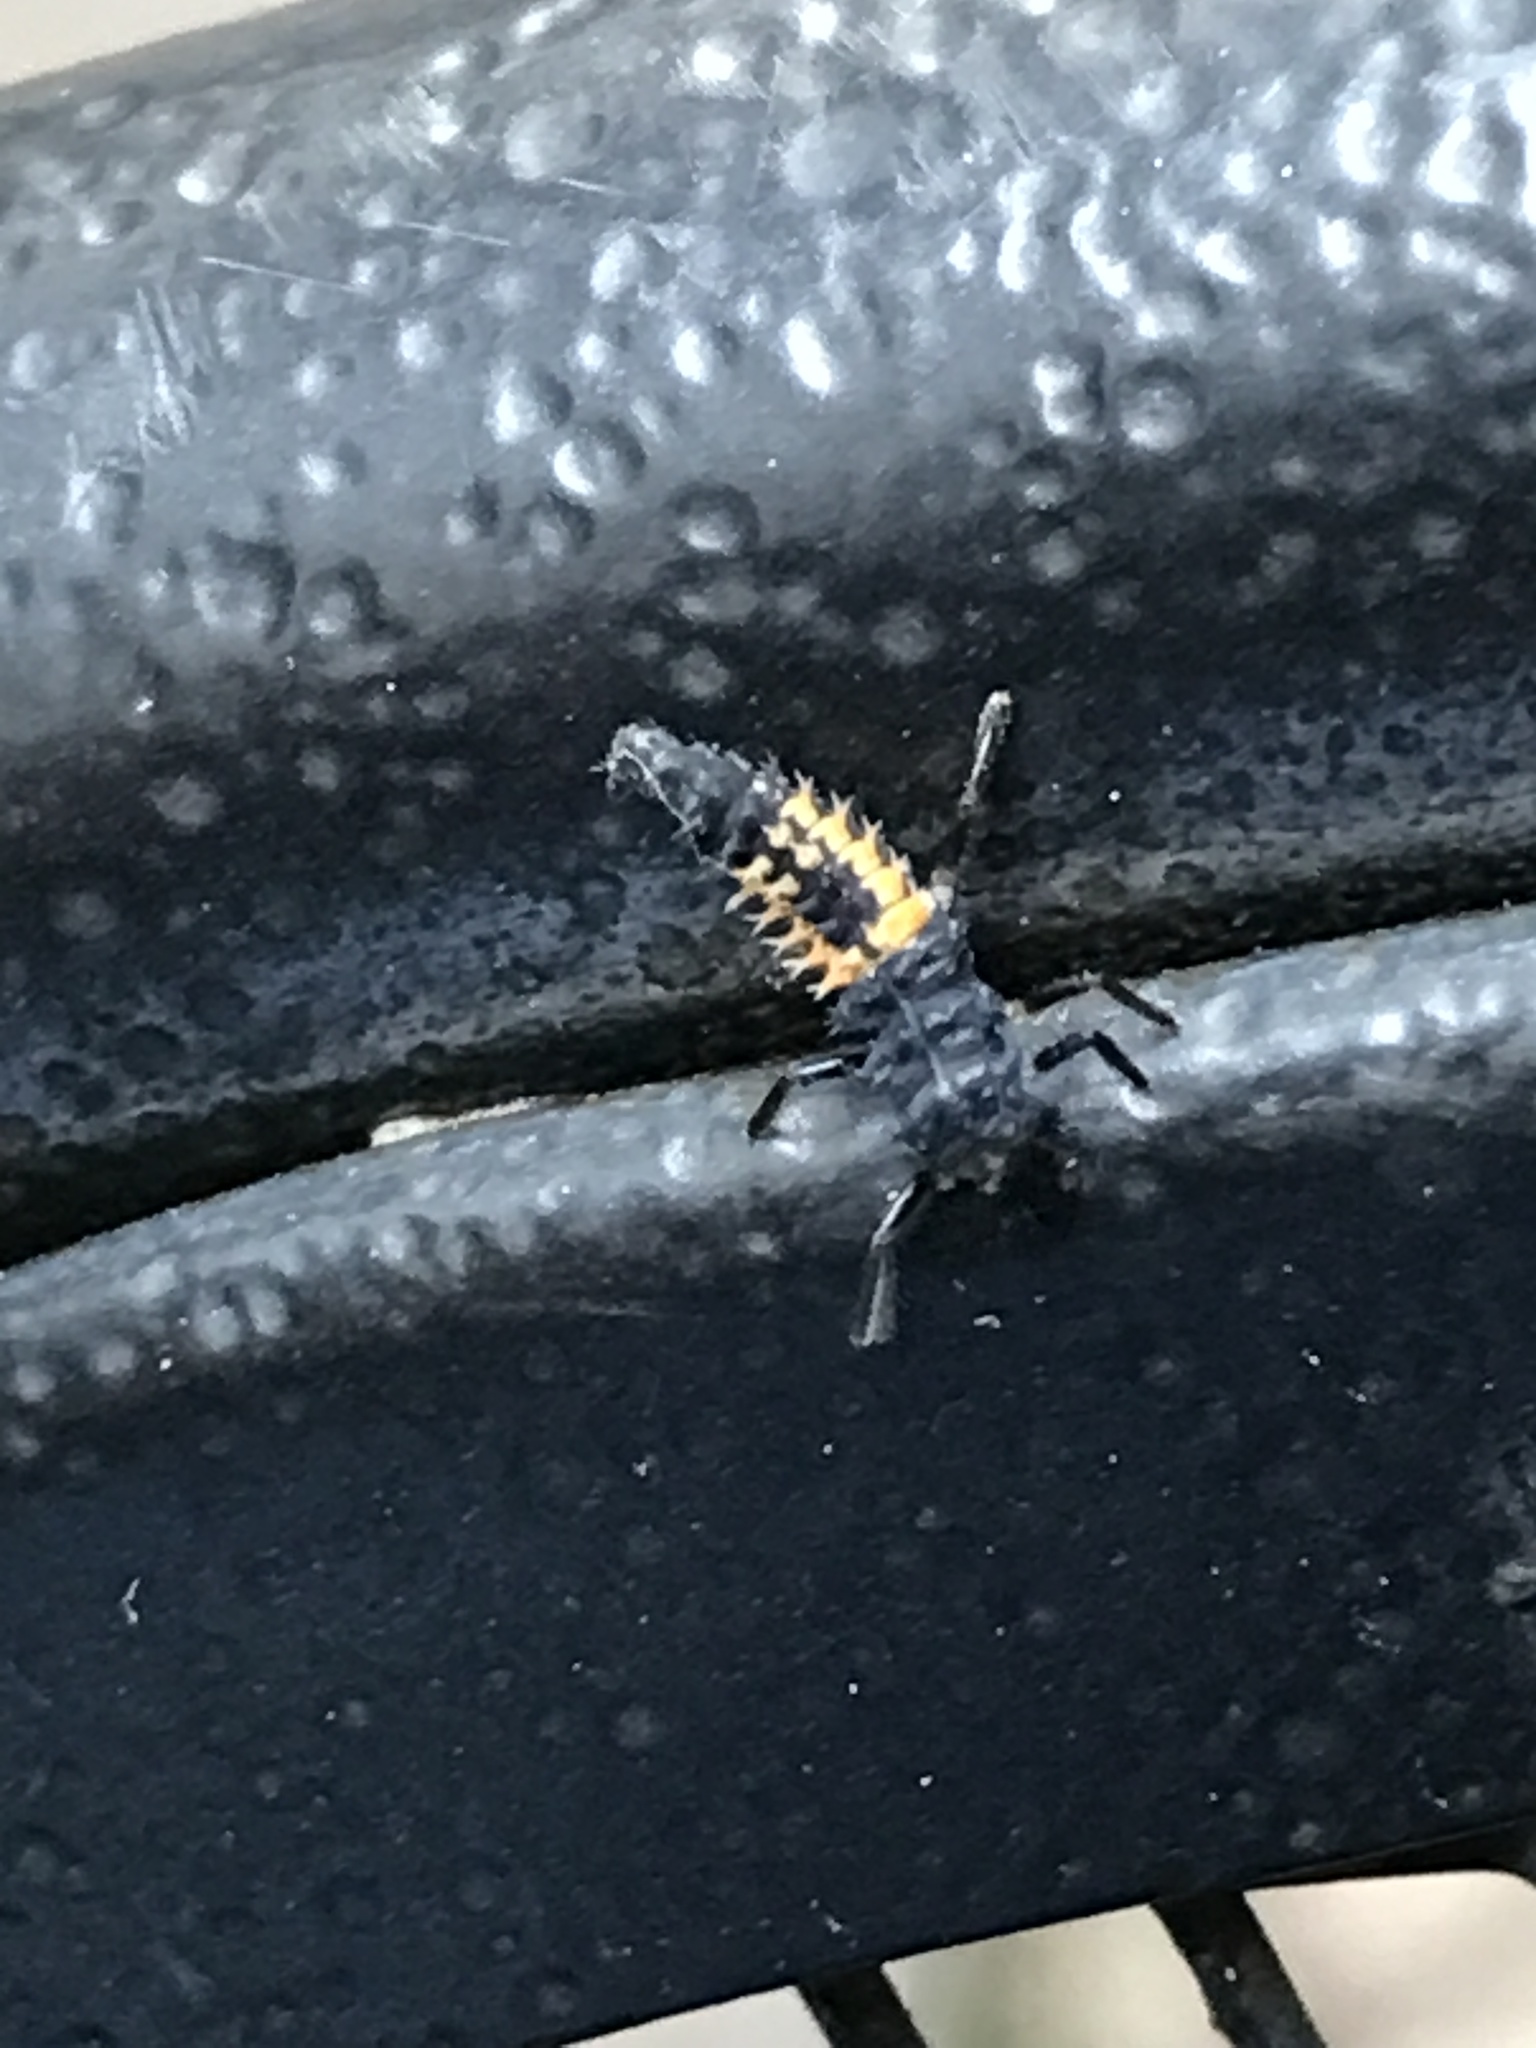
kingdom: Animalia
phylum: Arthropoda
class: Insecta
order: Coleoptera
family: Coccinellidae
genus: Harmonia
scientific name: Harmonia axyridis
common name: Harlequin ladybird
